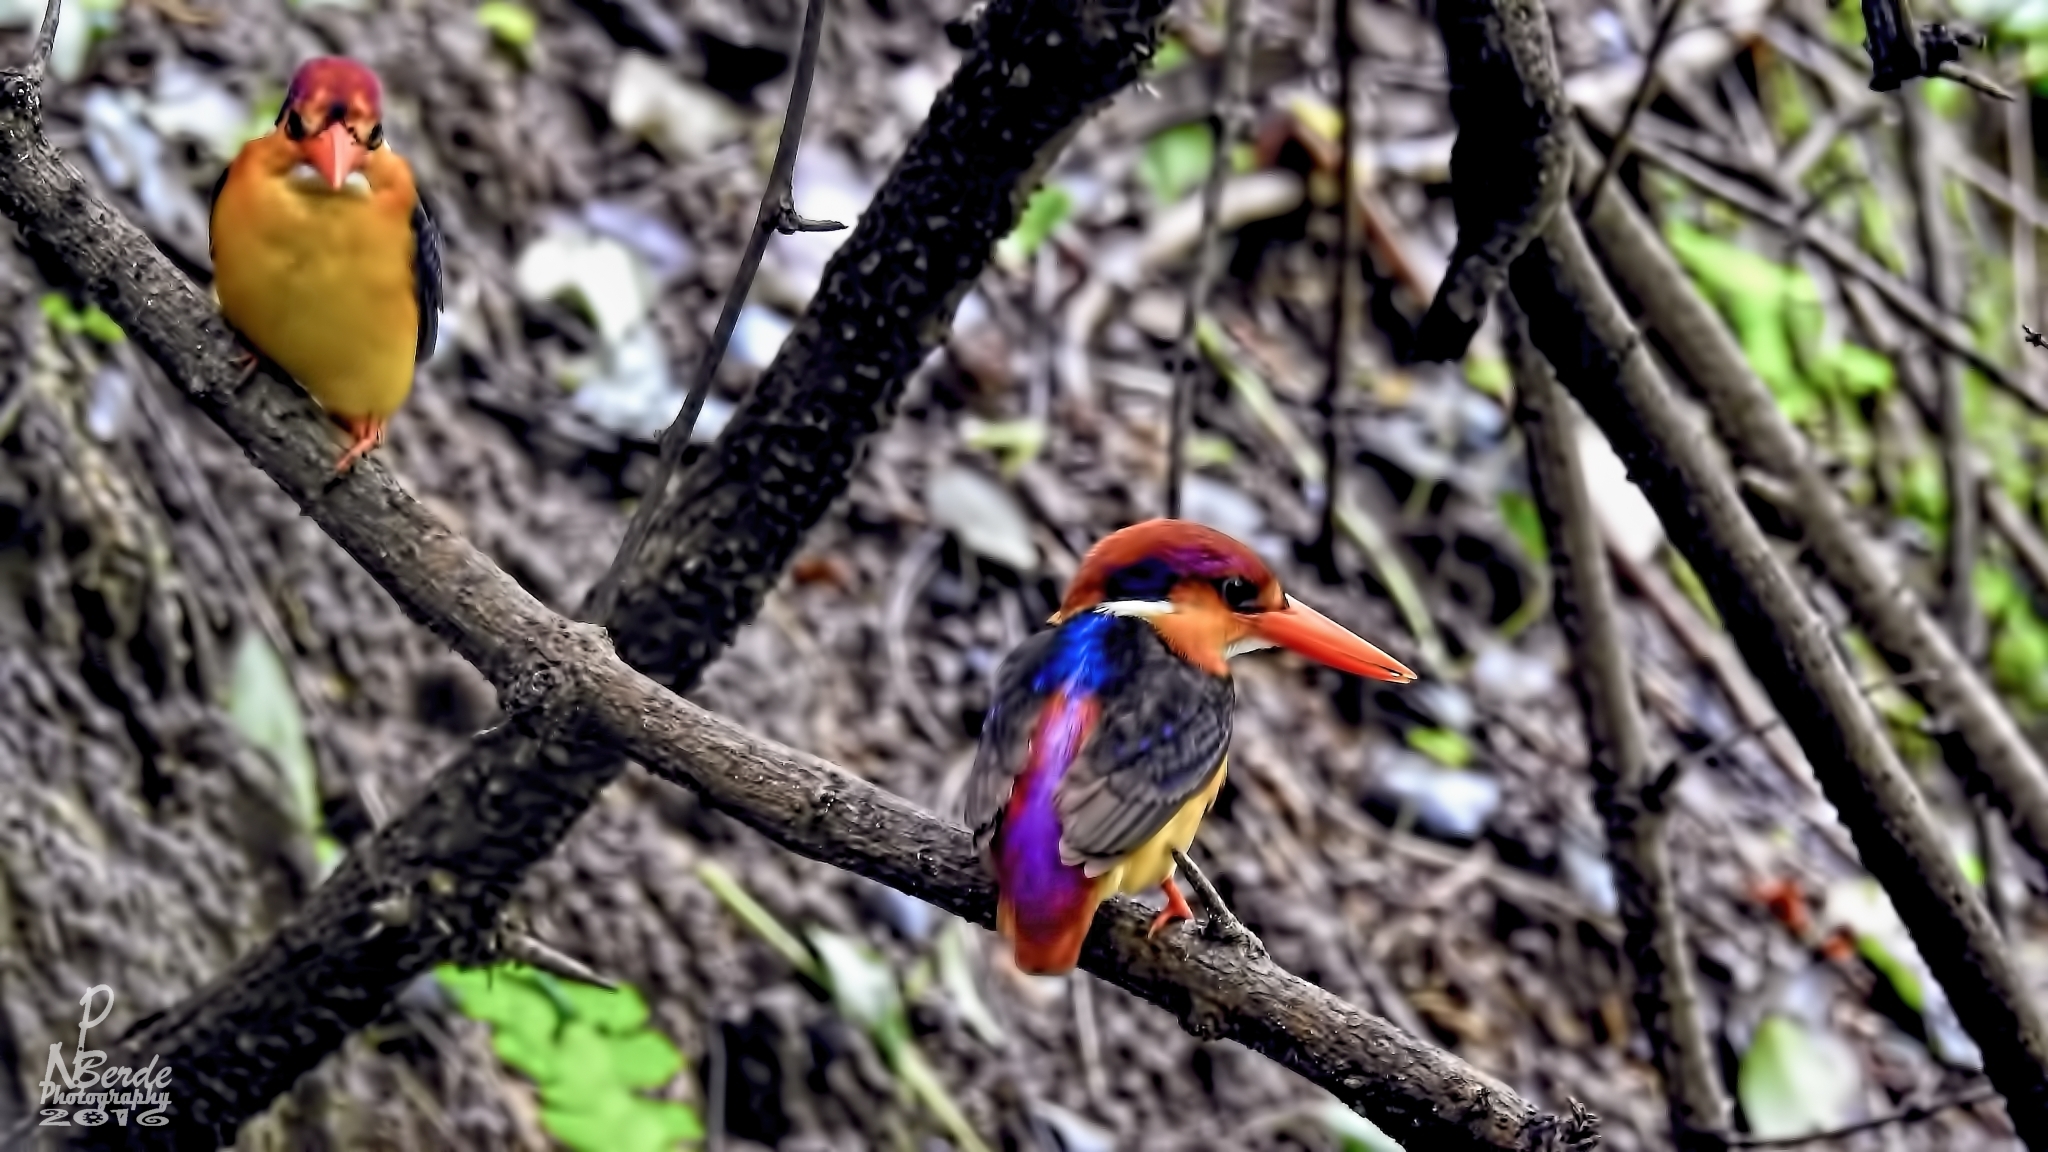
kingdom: Animalia
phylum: Chordata
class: Aves
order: Coraciiformes
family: Alcedinidae
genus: Ceyx
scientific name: Ceyx erithaca
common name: Oriental dwarf kingfisher
